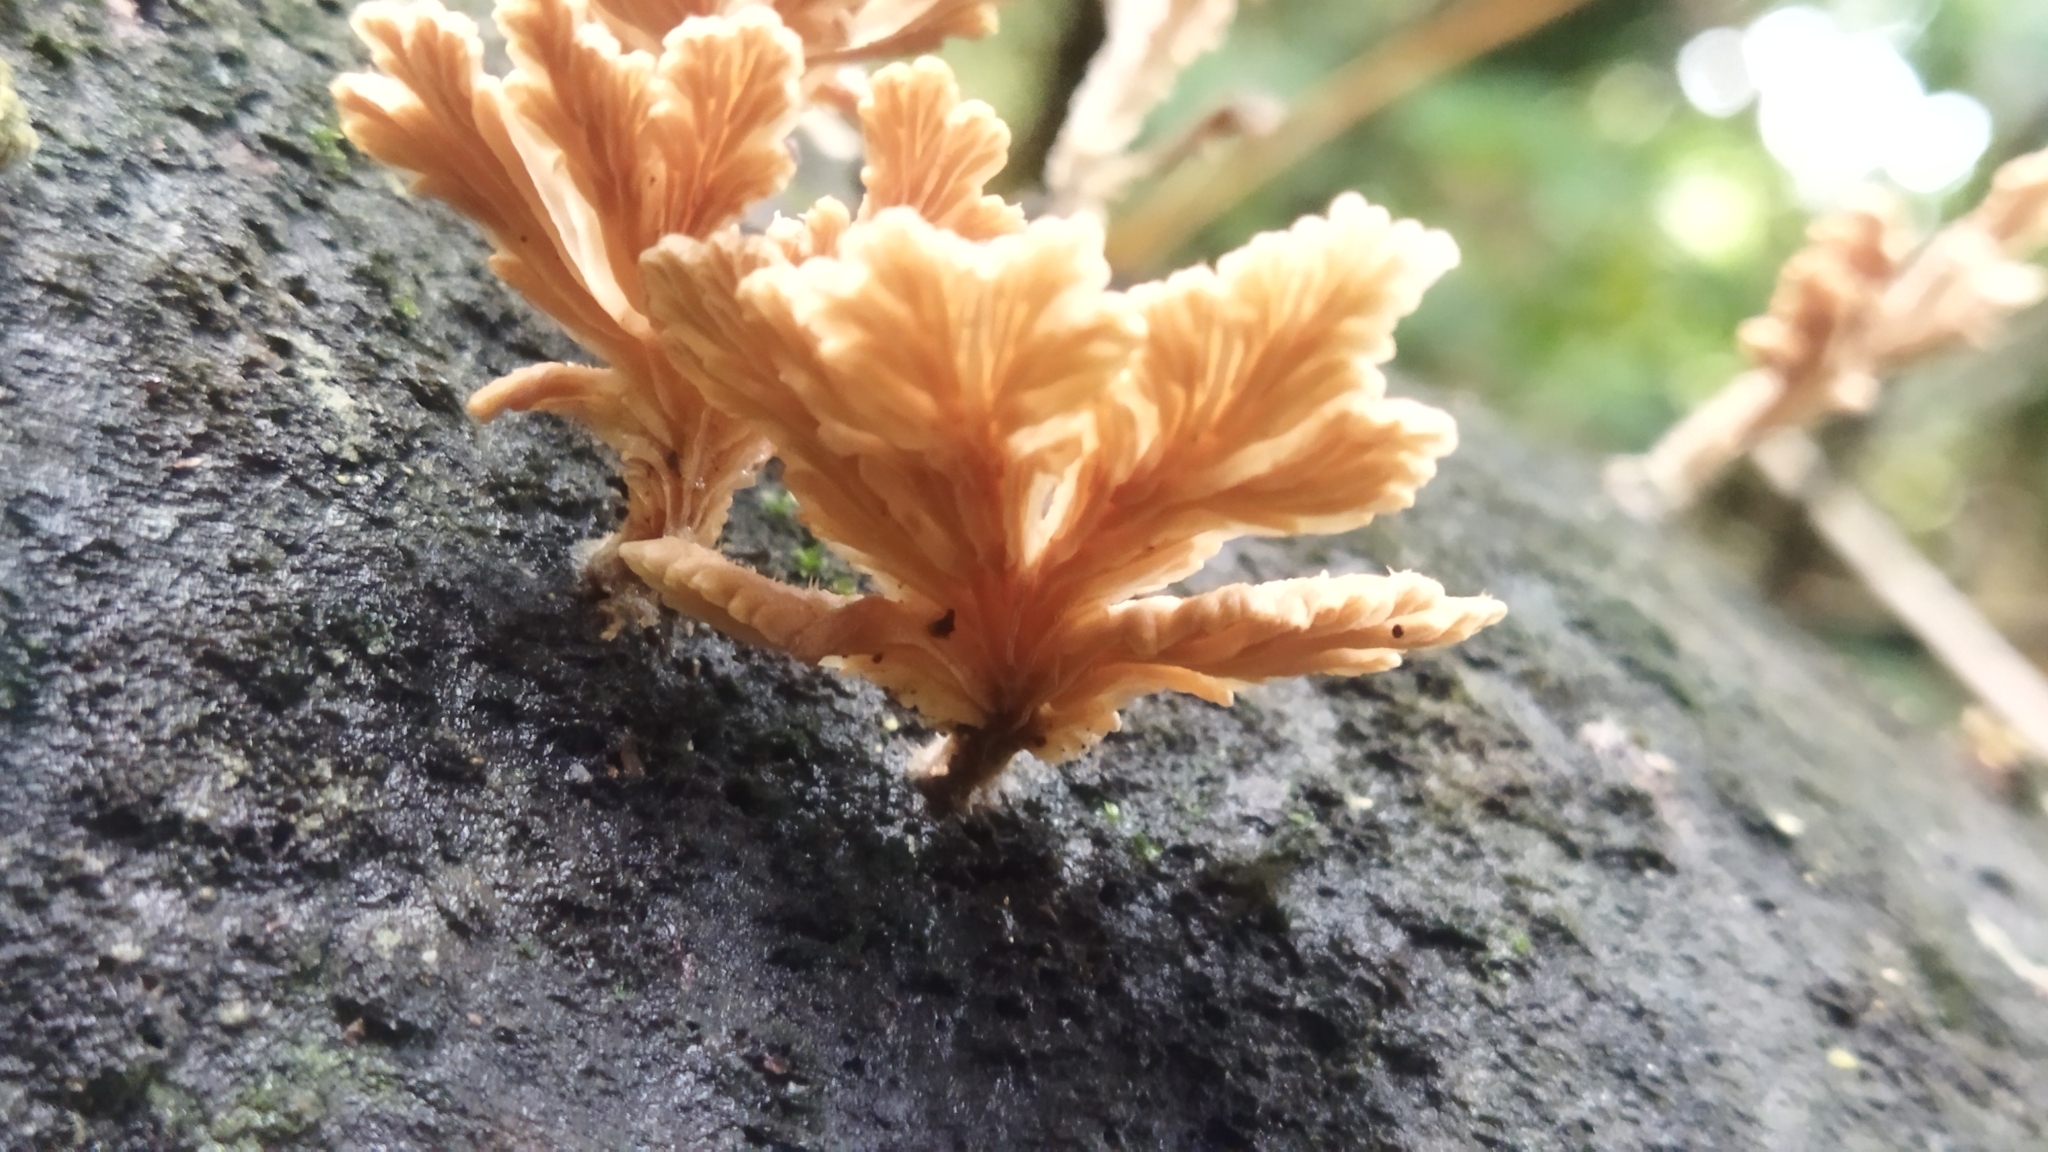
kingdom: Fungi
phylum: Basidiomycota
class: Agaricomycetes
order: Agaricales
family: Schizophyllaceae
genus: Schizophyllum
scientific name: Schizophyllum commune
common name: Common porecrust
